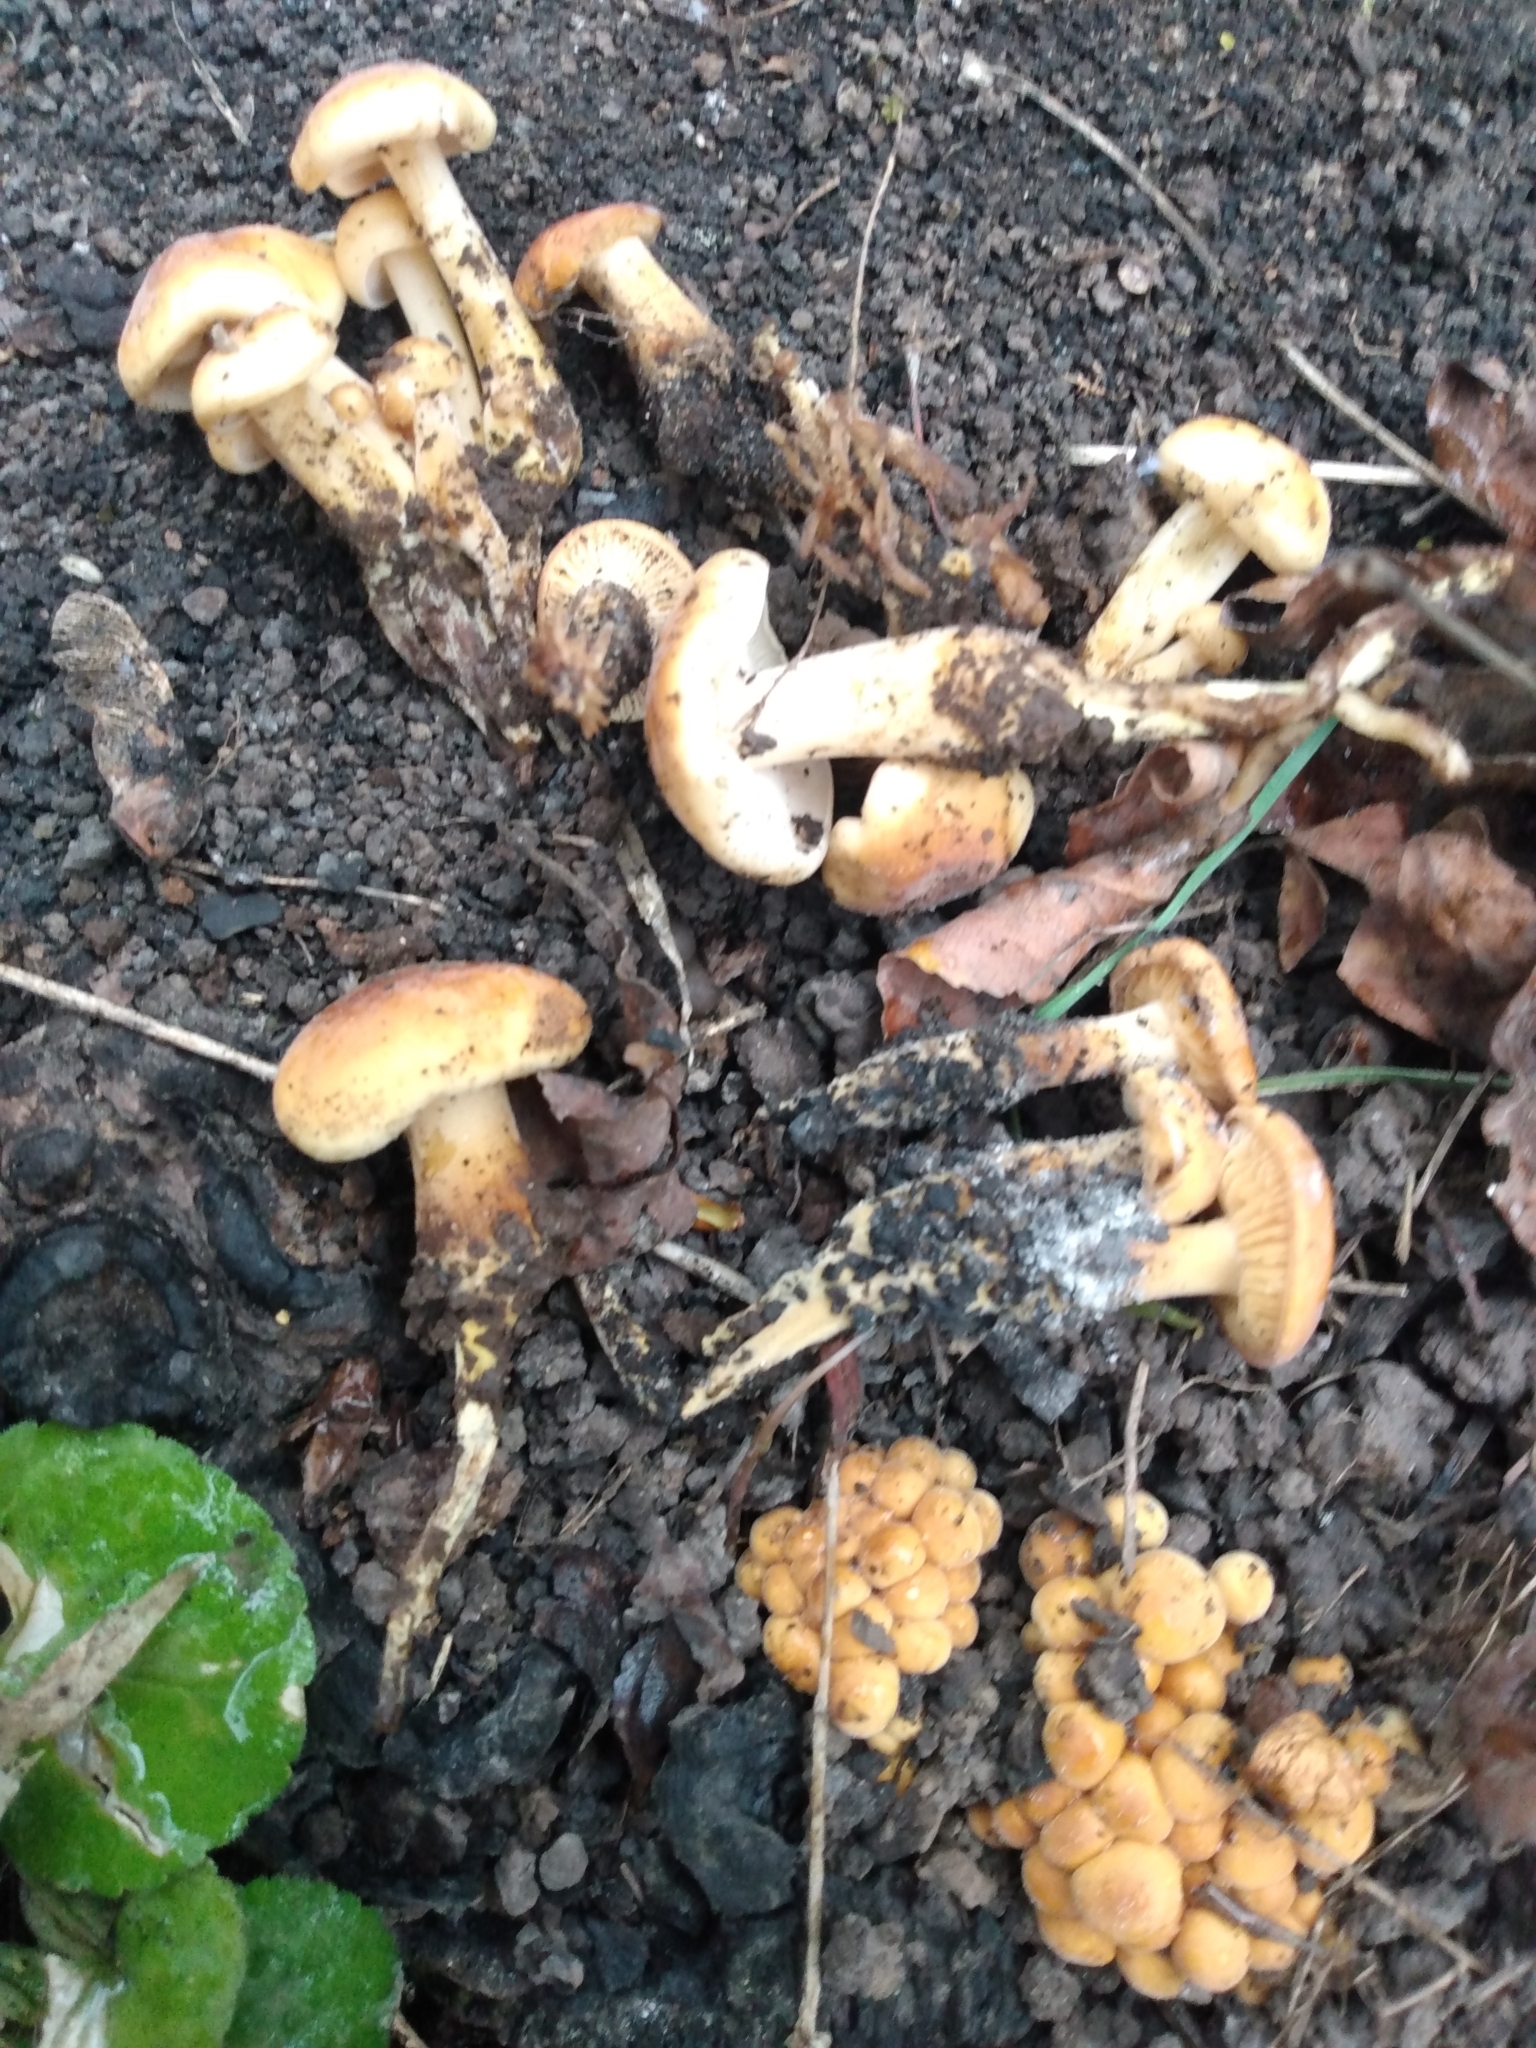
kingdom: Fungi
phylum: Basidiomycota
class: Agaricomycetes
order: Agaricales
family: Physalacriaceae
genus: Flammulina
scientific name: Flammulina populicola
